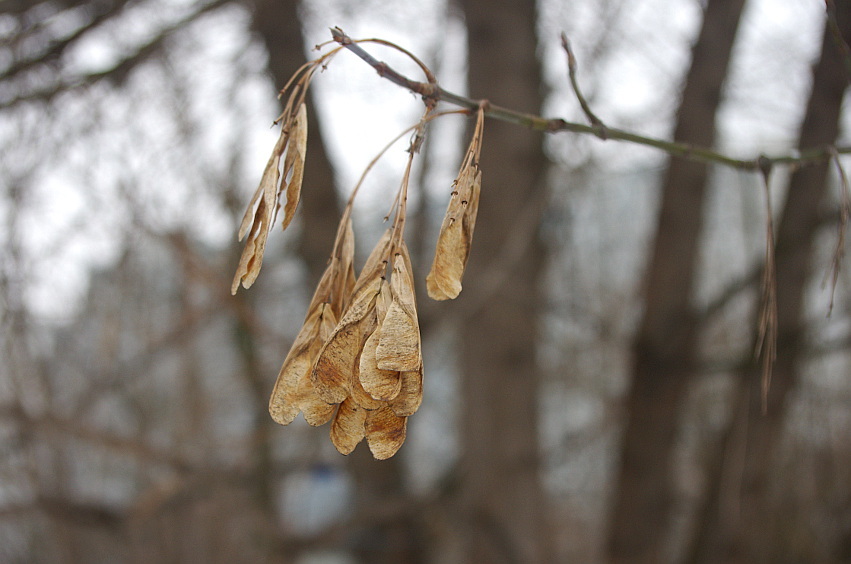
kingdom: Plantae
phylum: Tracheophyta
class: Magnoliopsida
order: Sapindales
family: Sapindaceae
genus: Acer
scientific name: Acer negundo
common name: Ashleaf maple
